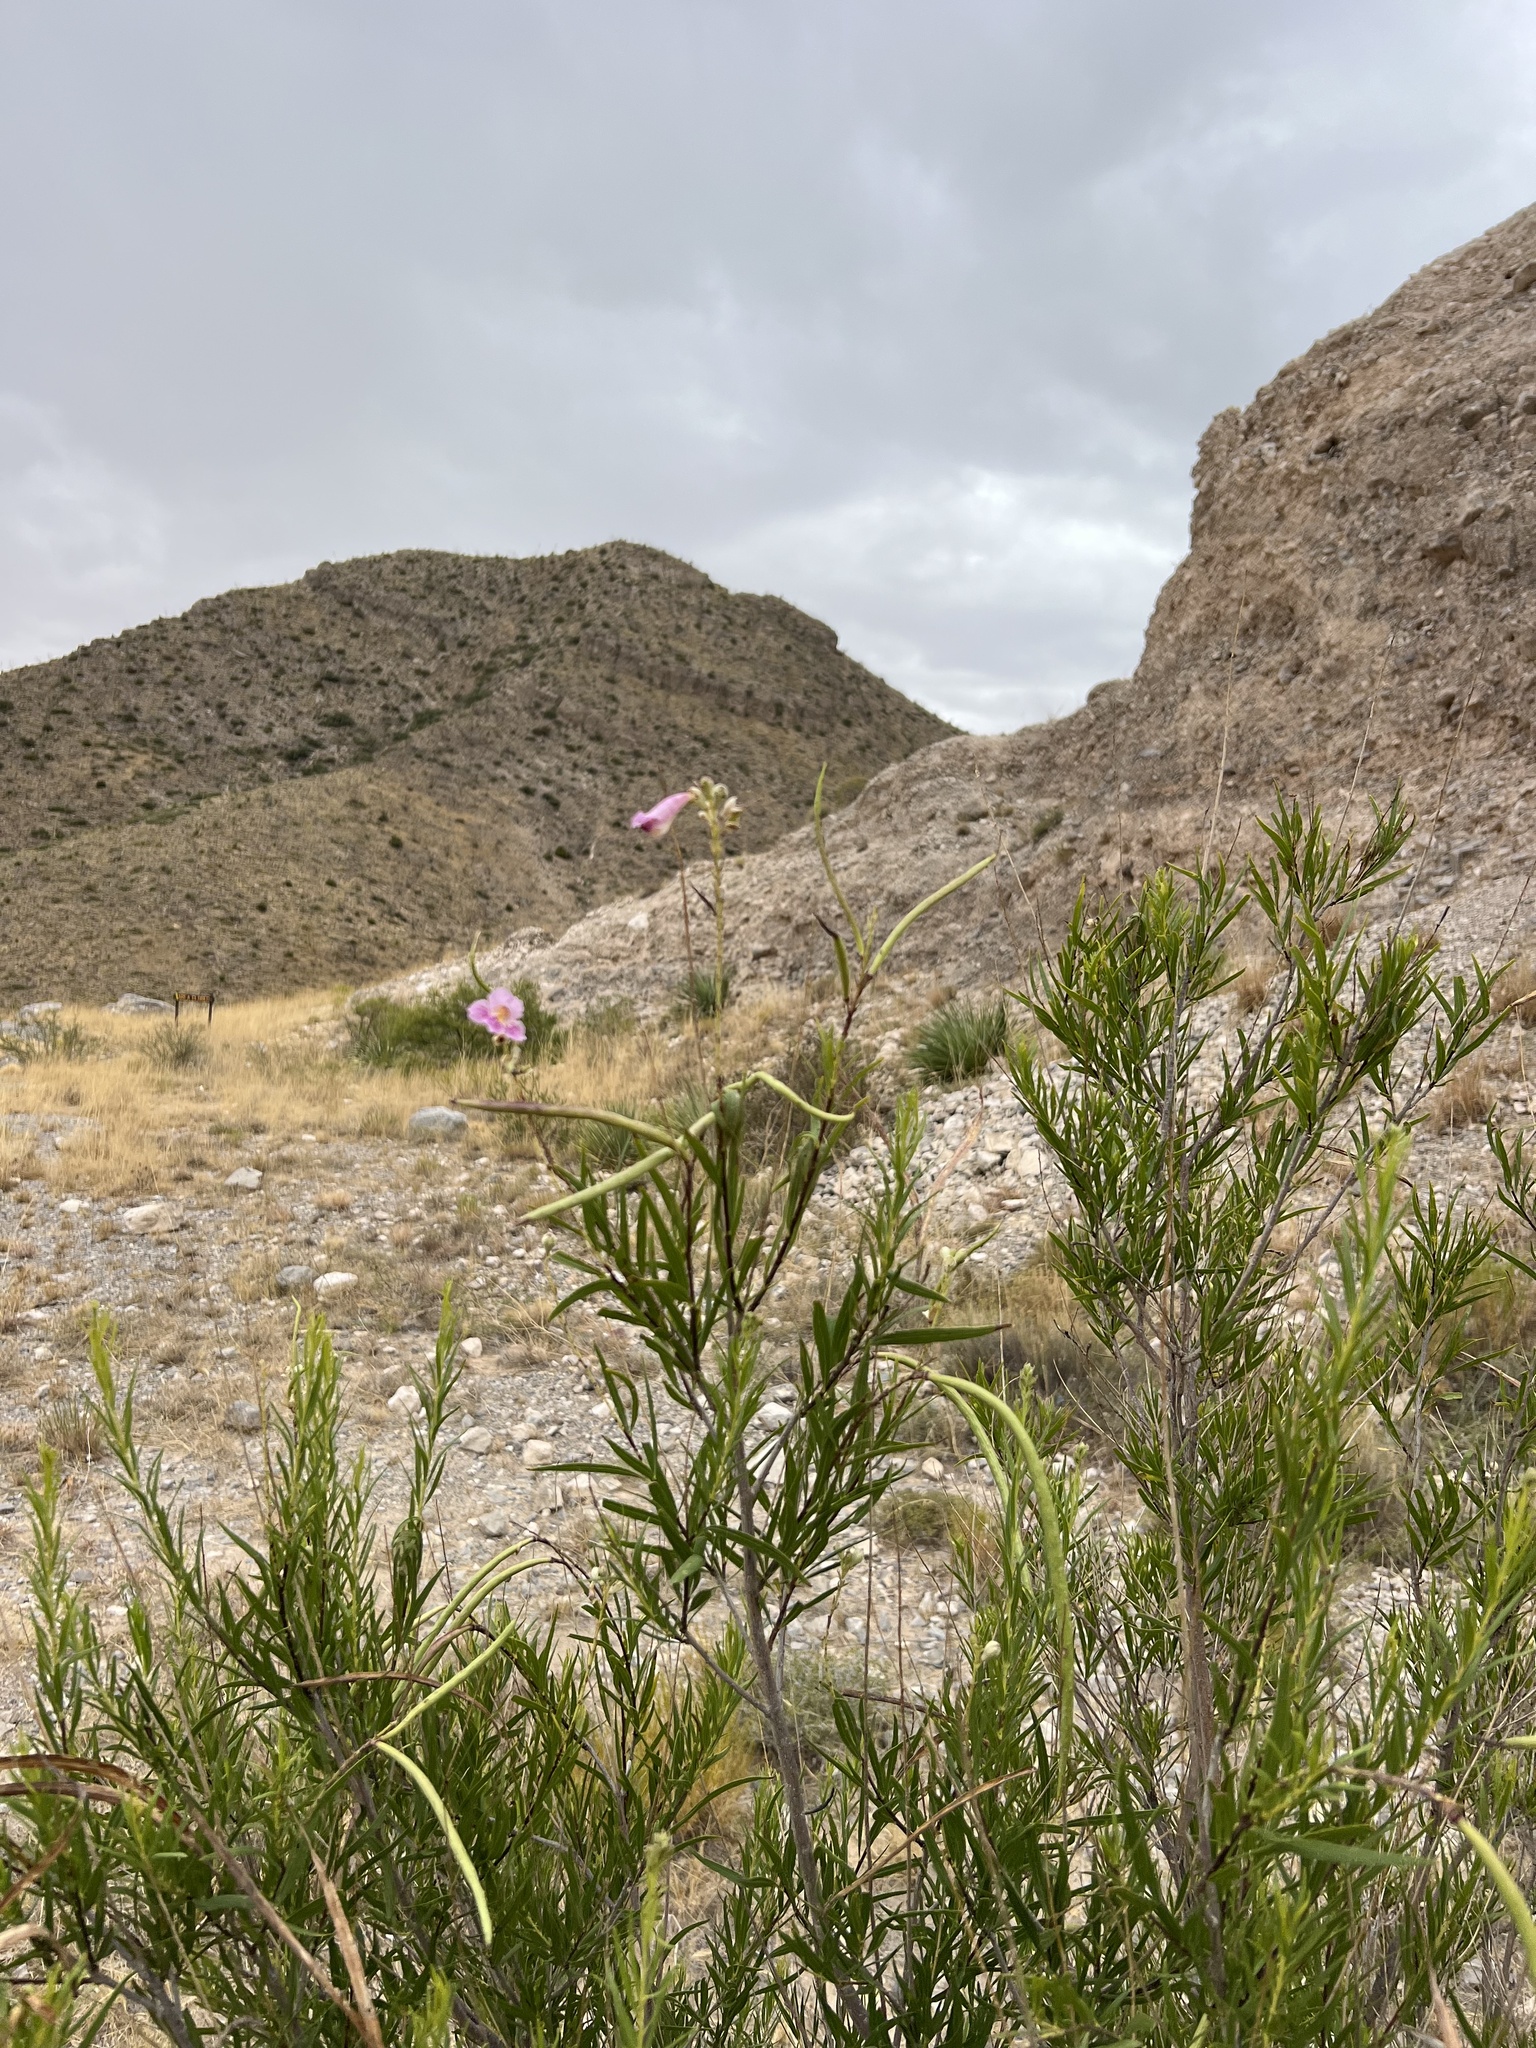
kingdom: Plantae
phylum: Tracheophyta
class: Magnoliopsida
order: Lamiales
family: Bignoniaceae
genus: Chilopsis
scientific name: Chilopsis linearis
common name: Desert-willow
